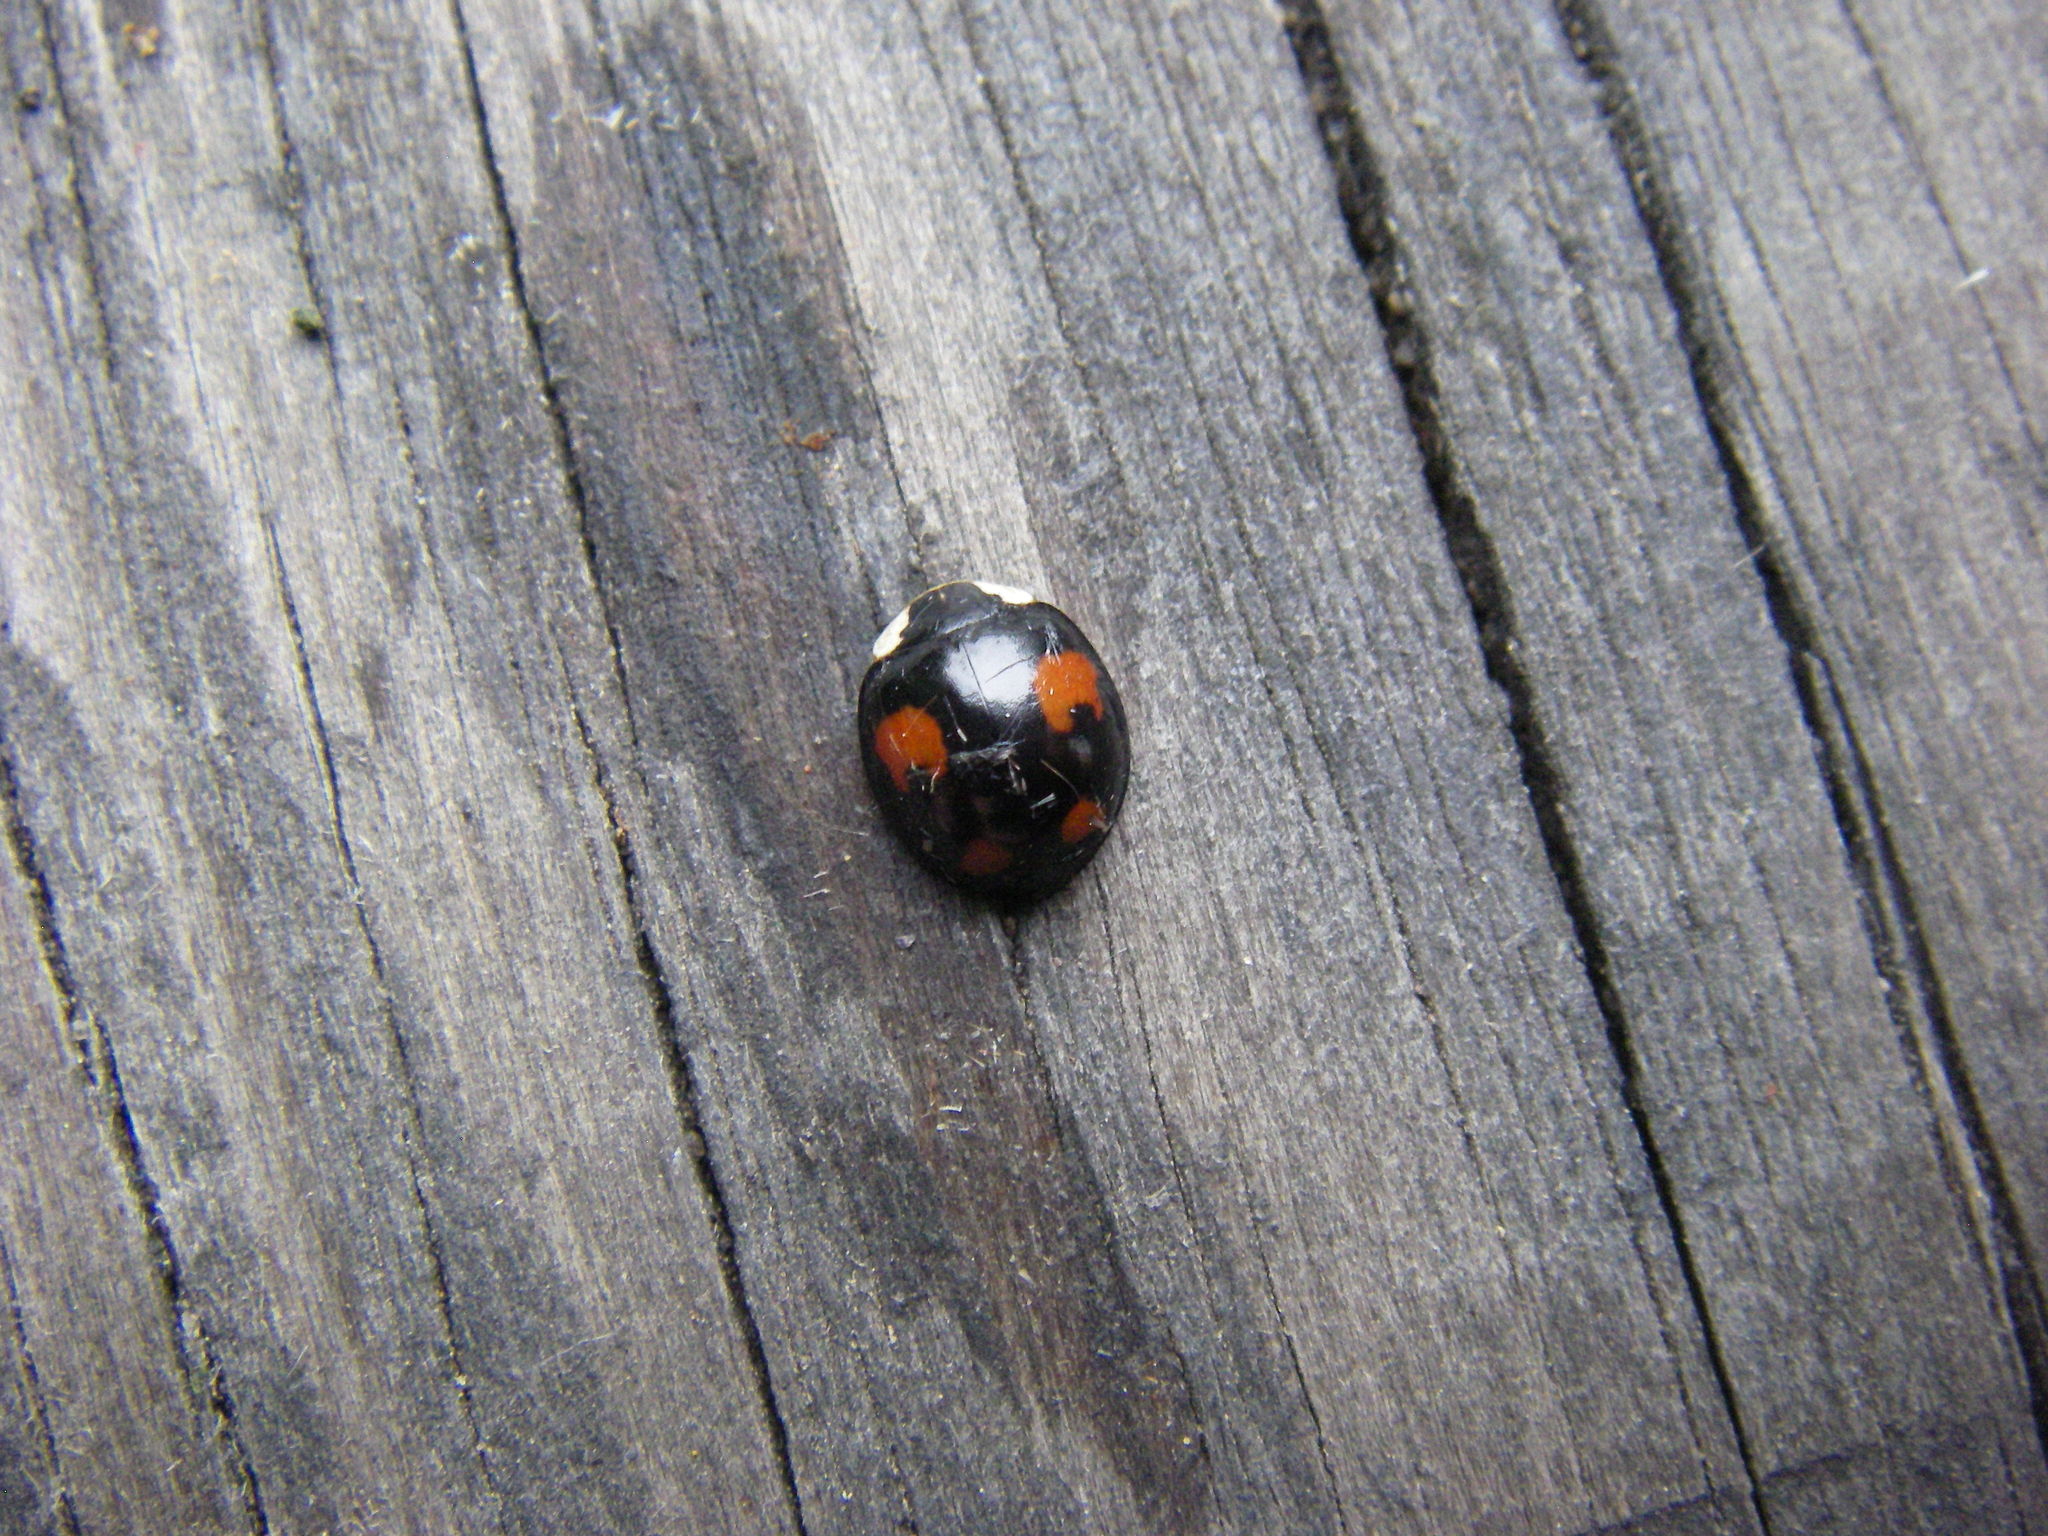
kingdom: Animalia
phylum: Arthropoda
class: Insecta
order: Coleoptera
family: Coccinellidae
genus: Harmonia
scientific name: Harmonia axyridis
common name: Harlequin ladybird
